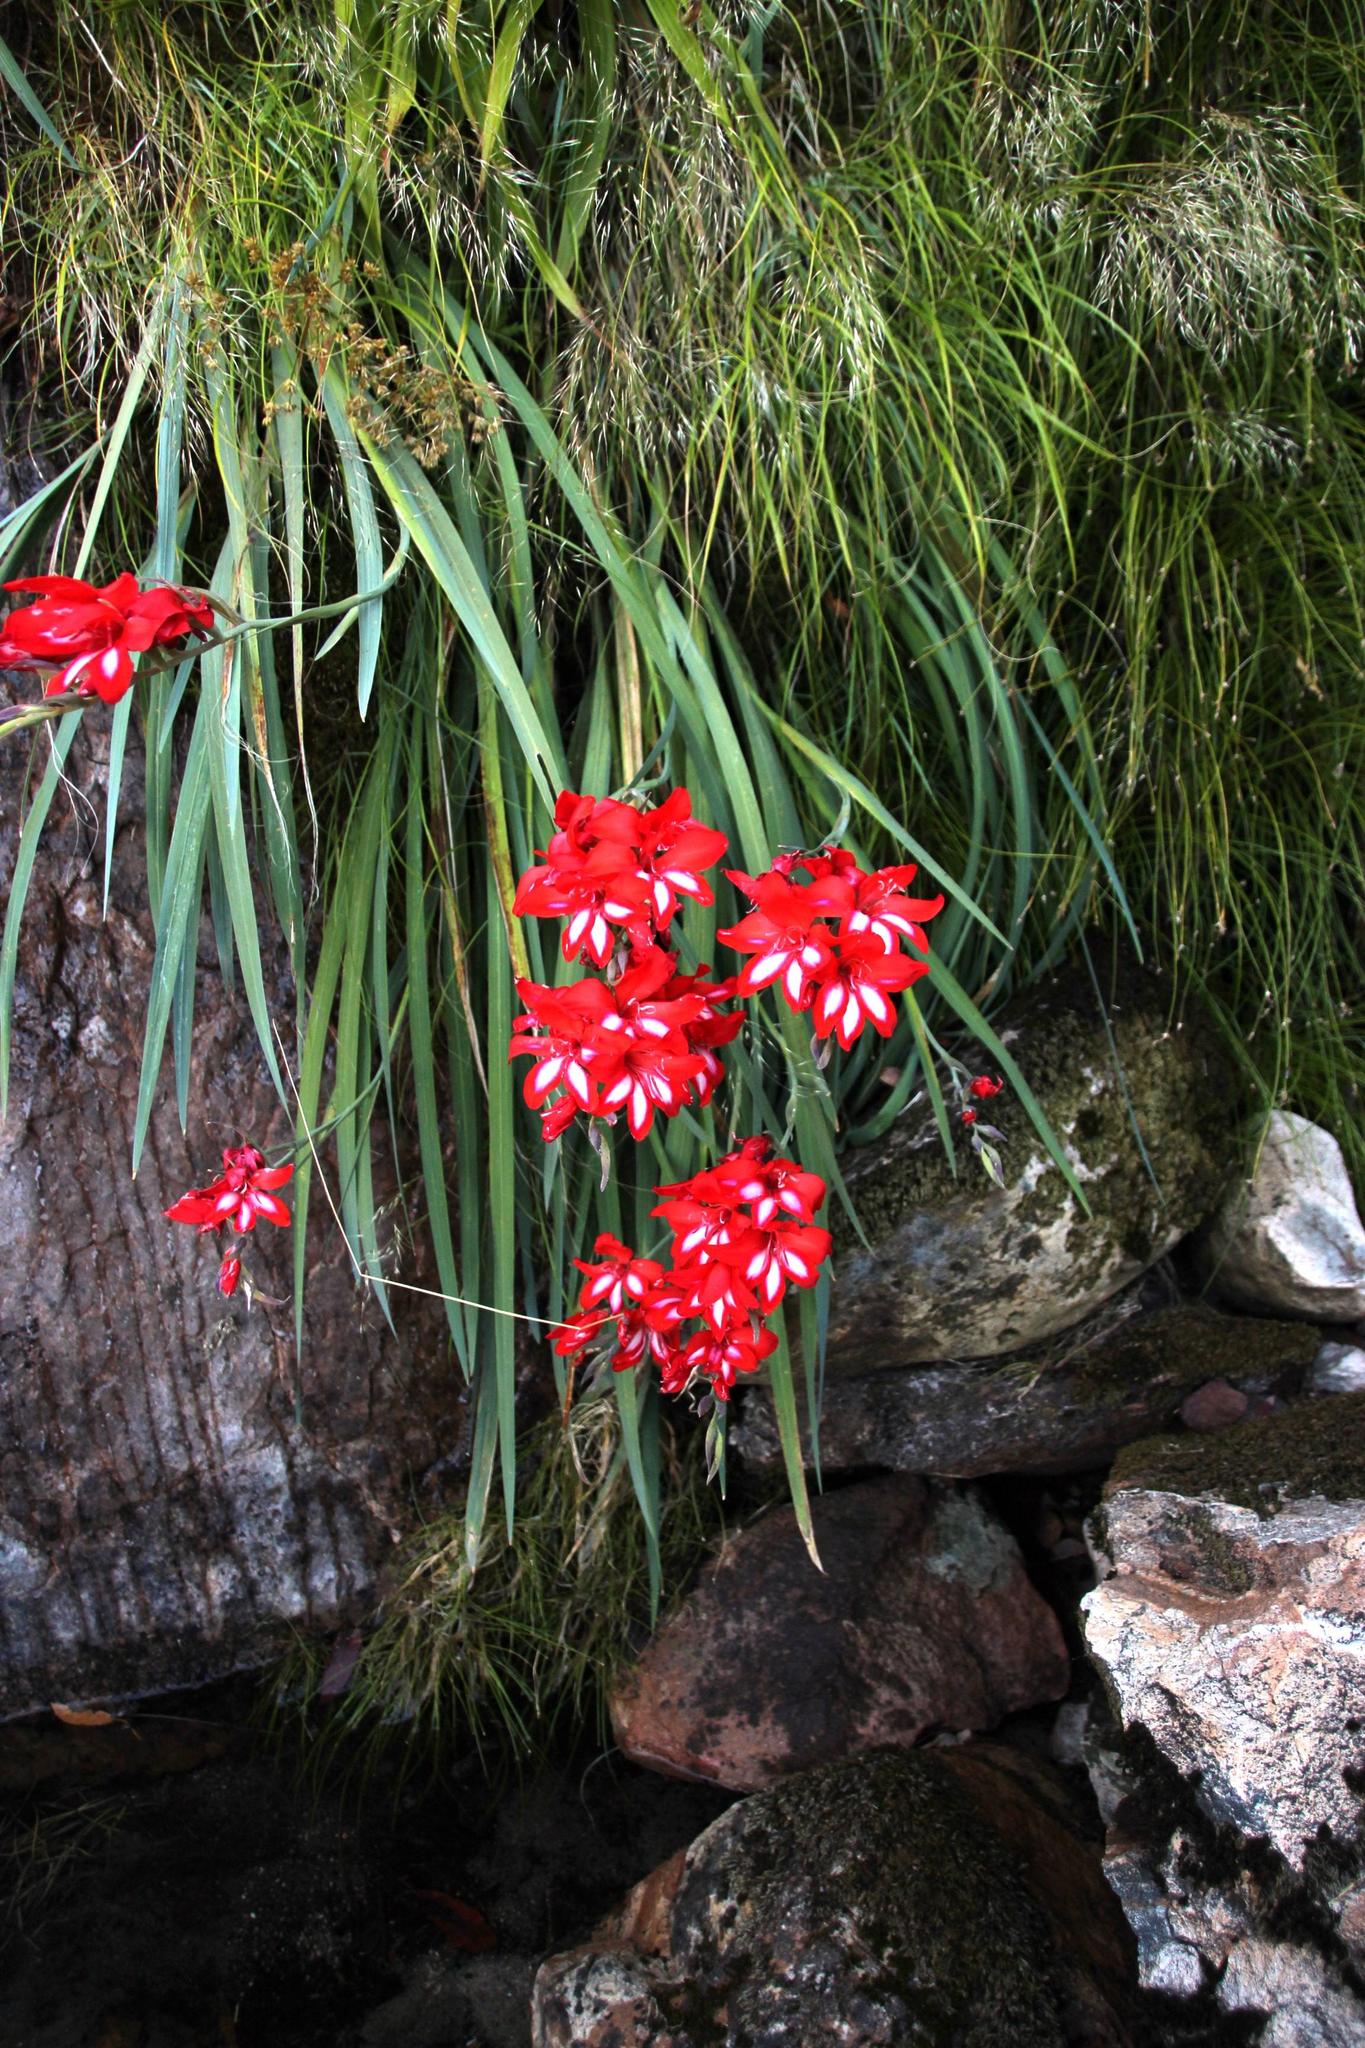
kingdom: Plantae
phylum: Tracheophyta
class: Liliopsida
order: Asparagales
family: Iridaceae
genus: Gladiolus
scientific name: Gladiolus cardinalis
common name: New year-lily
